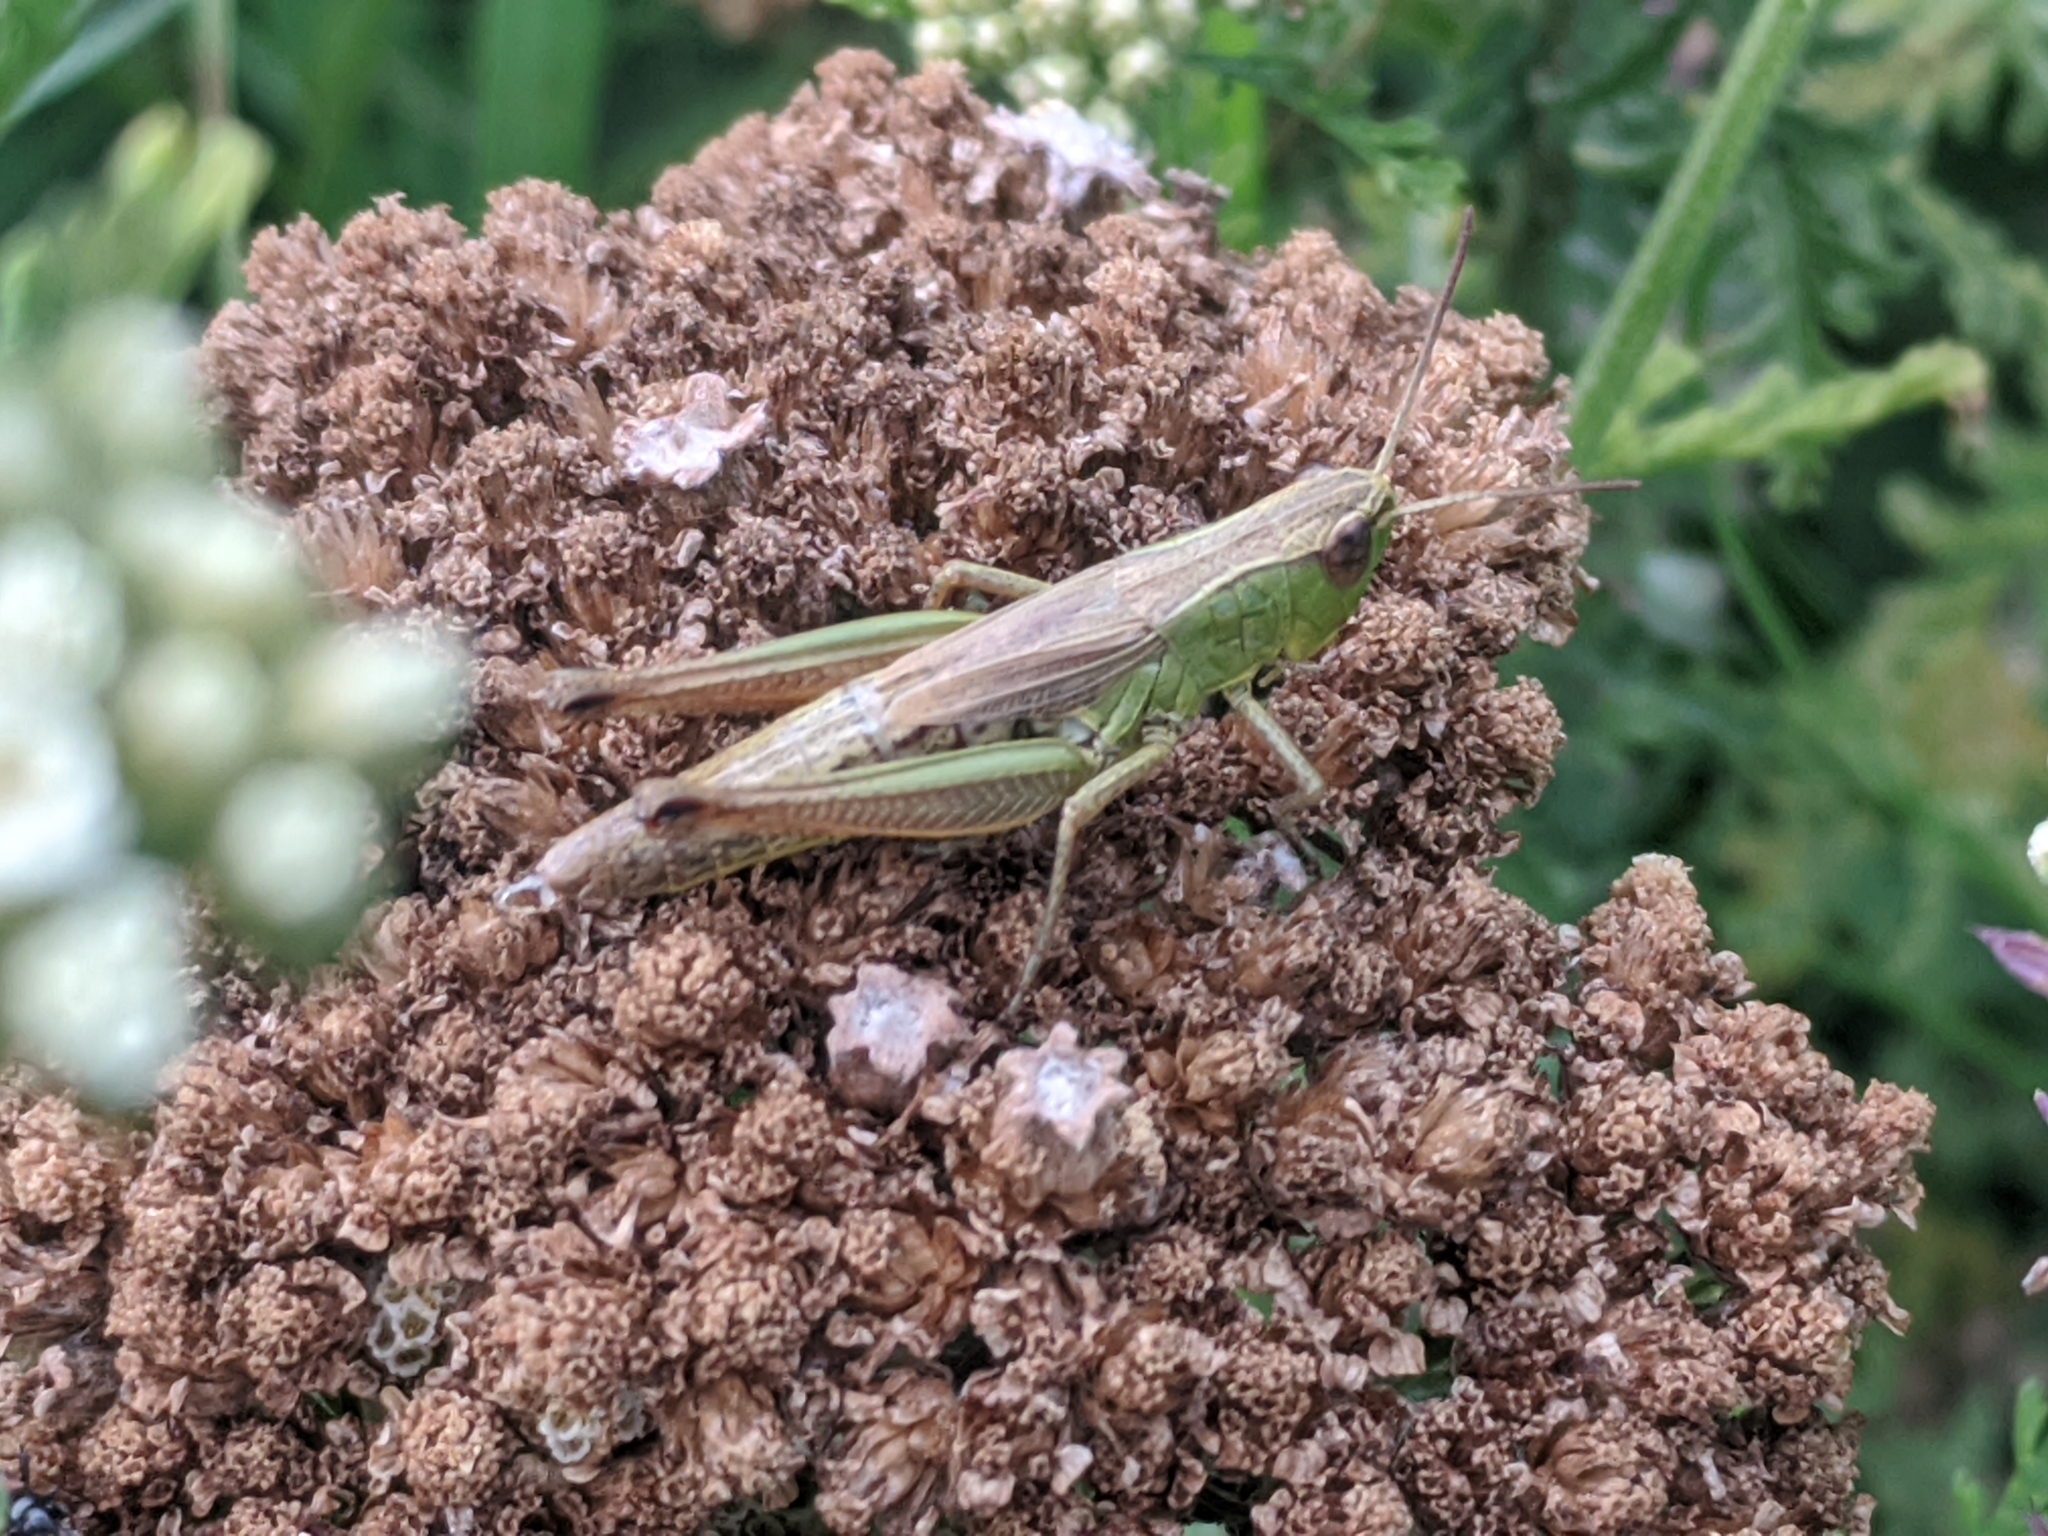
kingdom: Animalia
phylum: Arthropoda
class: Insecta
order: Orthoptera
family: Acrididae
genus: Pseudochorthippus
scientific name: Pseudochorthippus parallelus
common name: Meadow grasshopper
